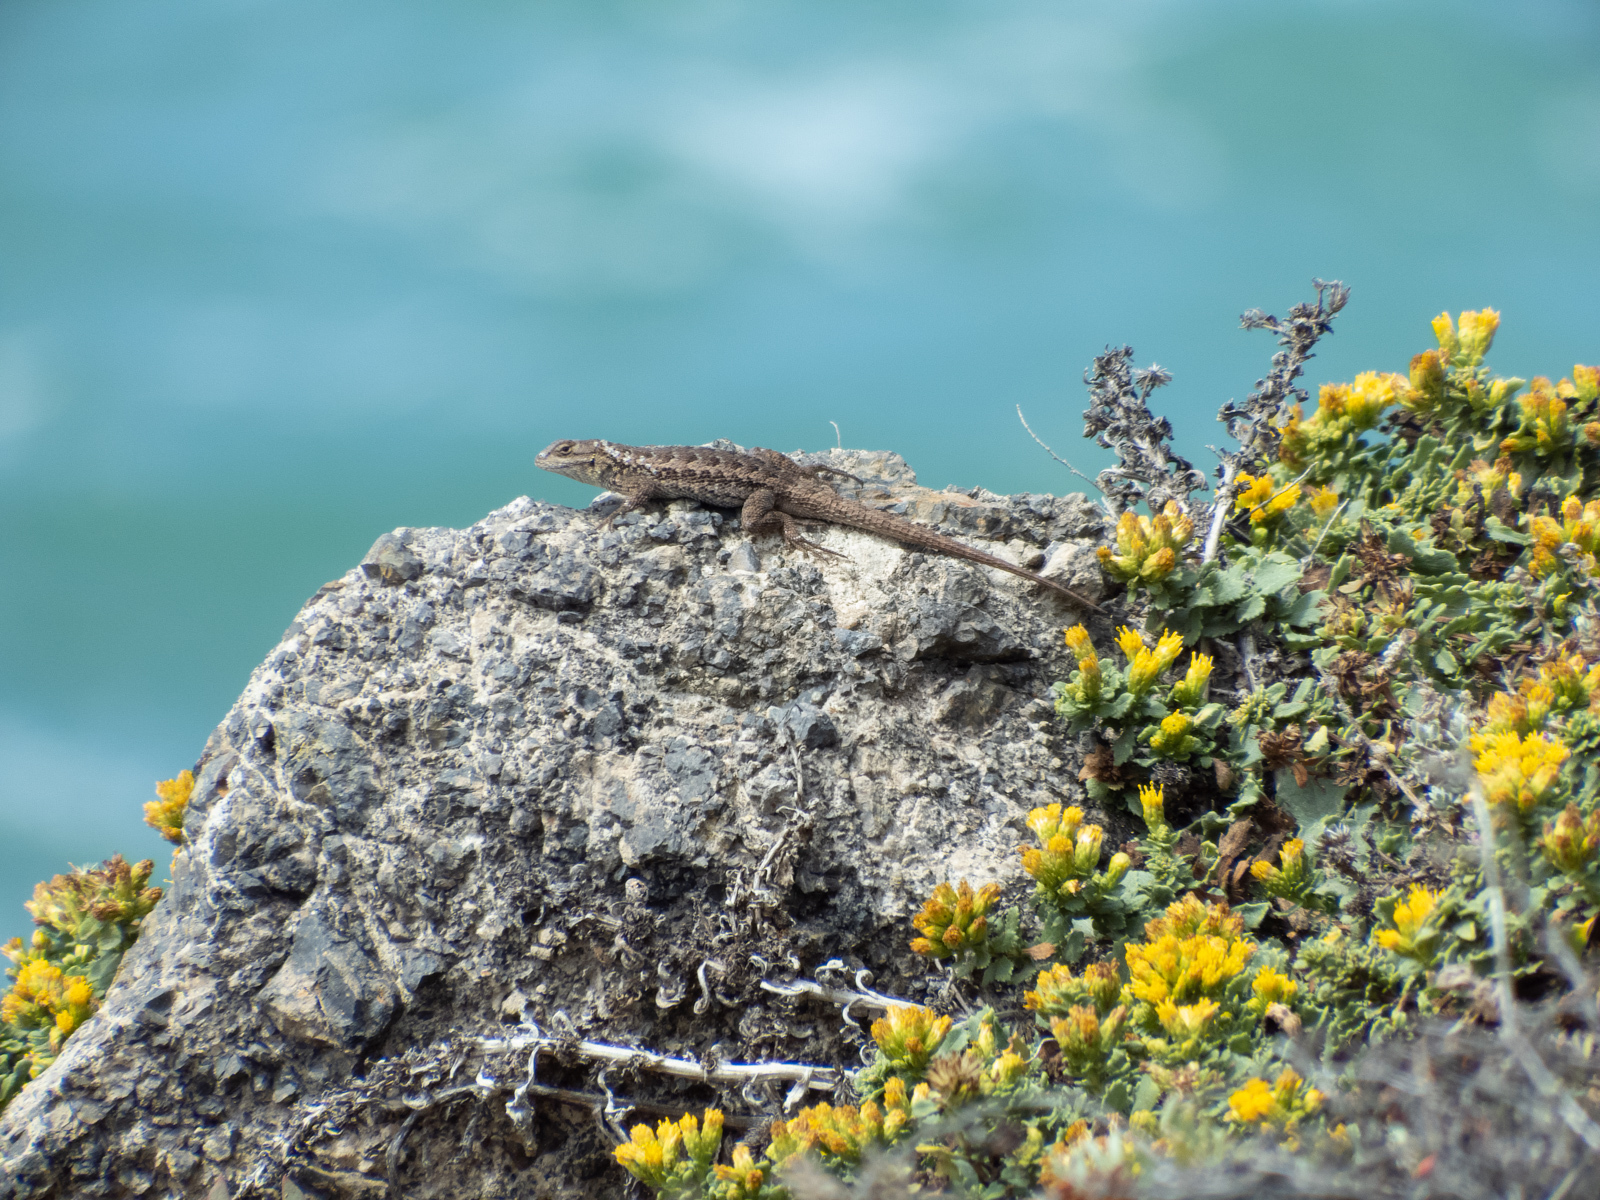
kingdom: Animalia
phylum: Chordata
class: Squamata
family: Phrynosomatidae
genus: Sceloporus
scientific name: Sceloporus occidentalis
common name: Western fence lizard
